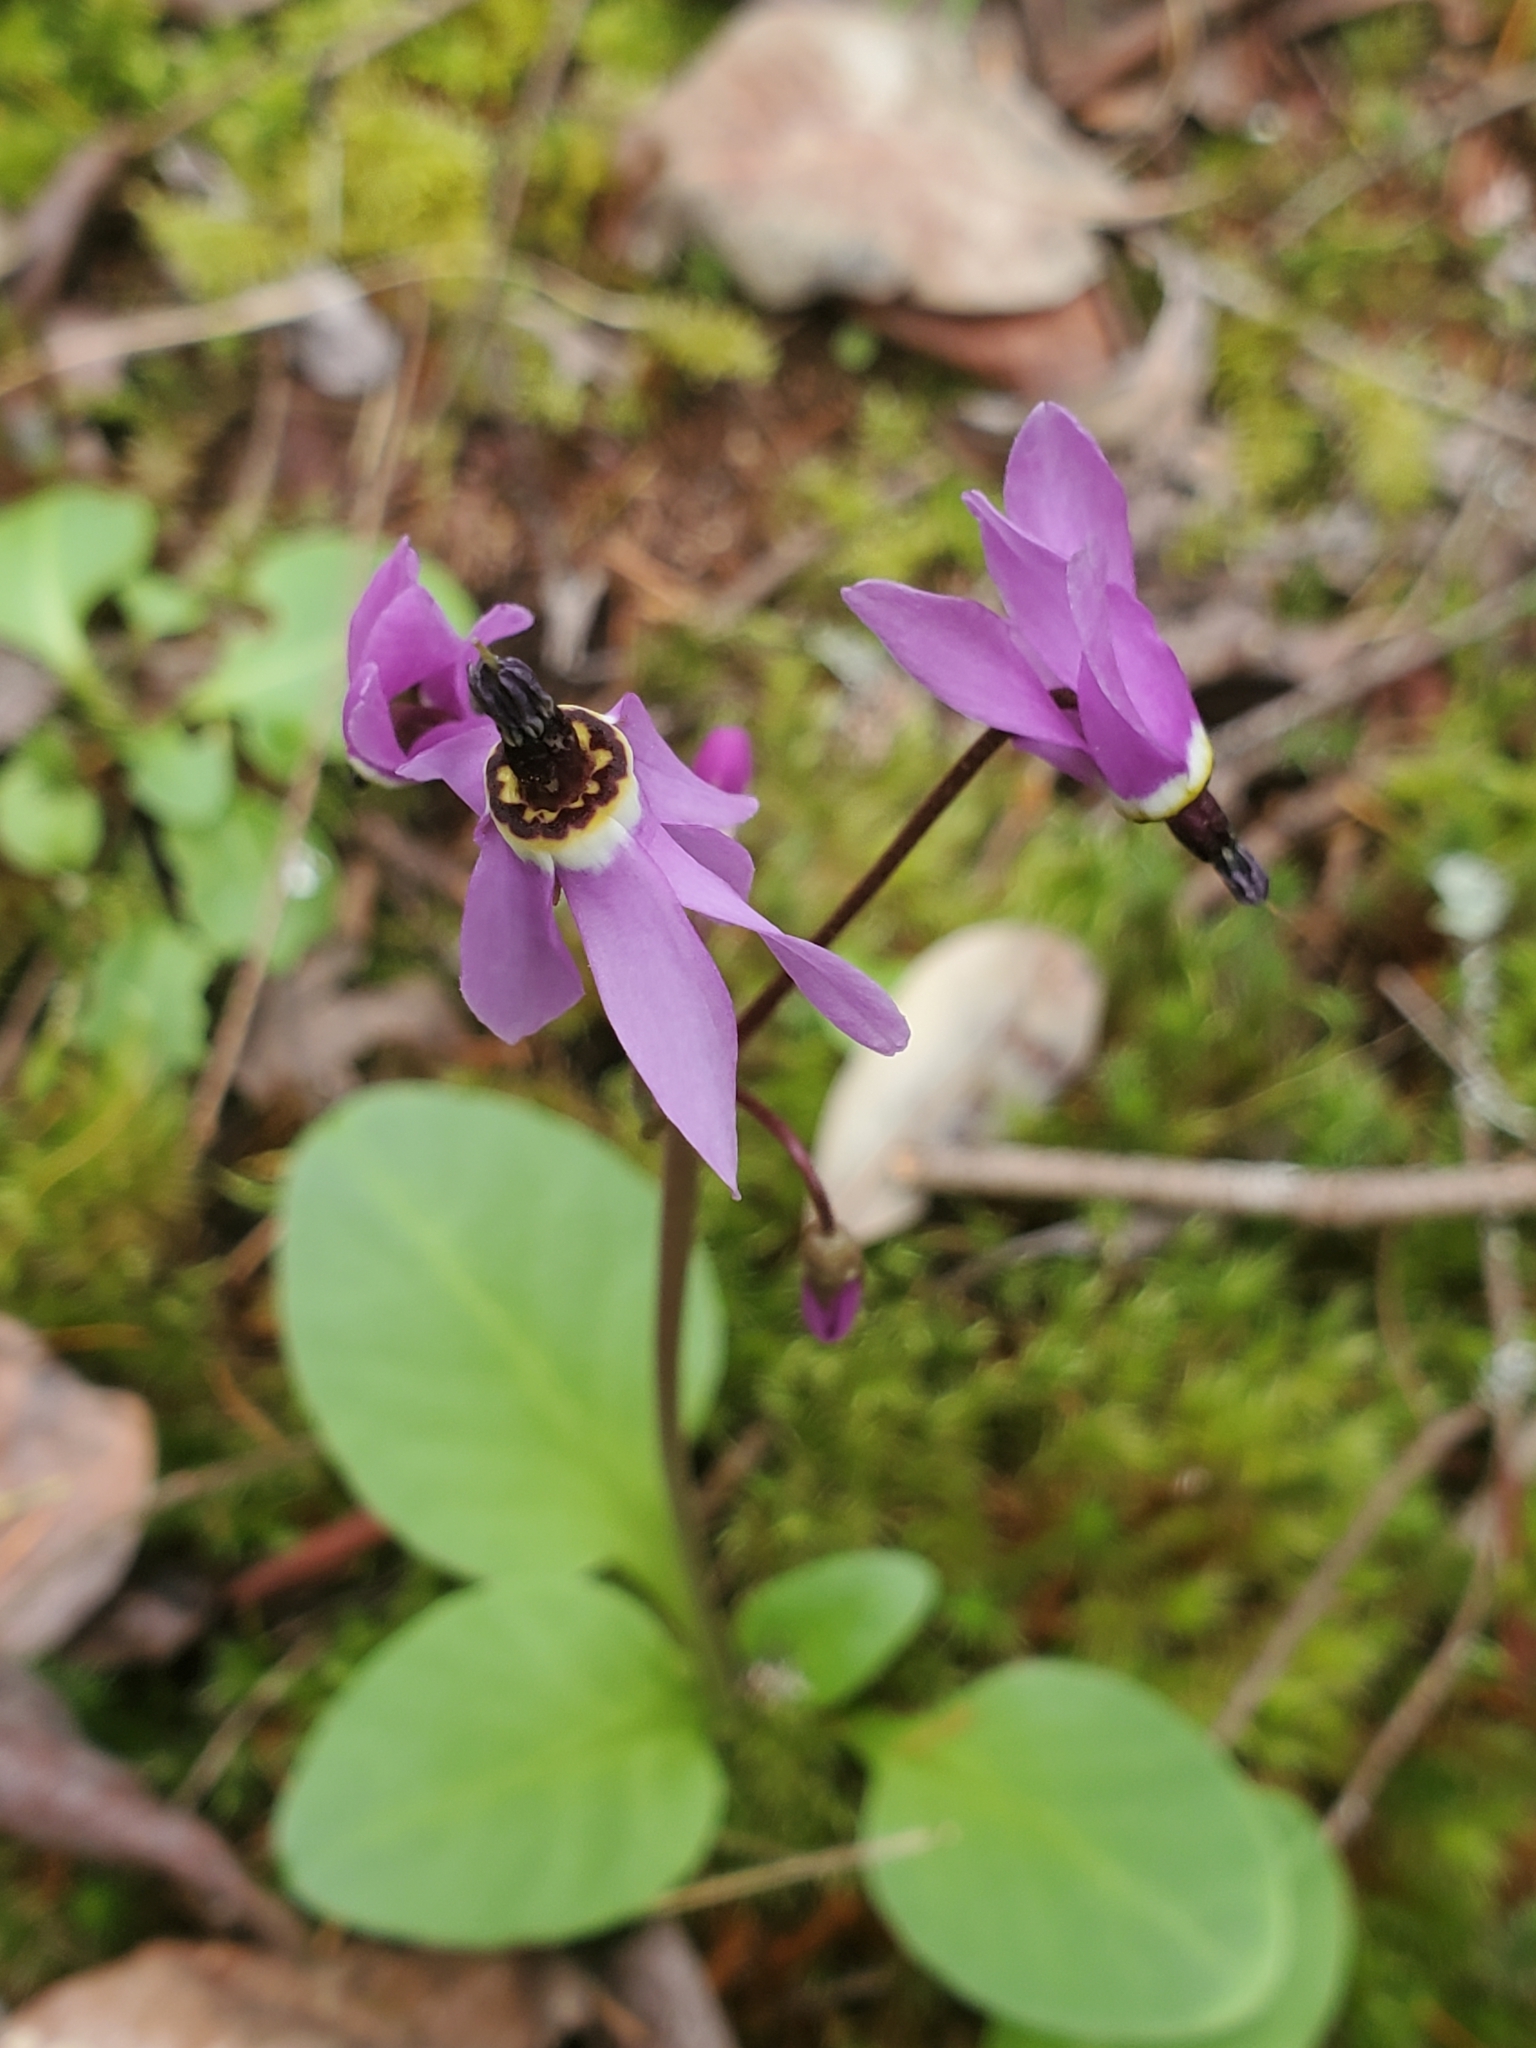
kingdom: Plantae
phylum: Tracheophyta
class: Magnoliopsida
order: Ericales
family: Primulaceae
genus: Dodecatheon
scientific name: Dodecatheon hendersonii
